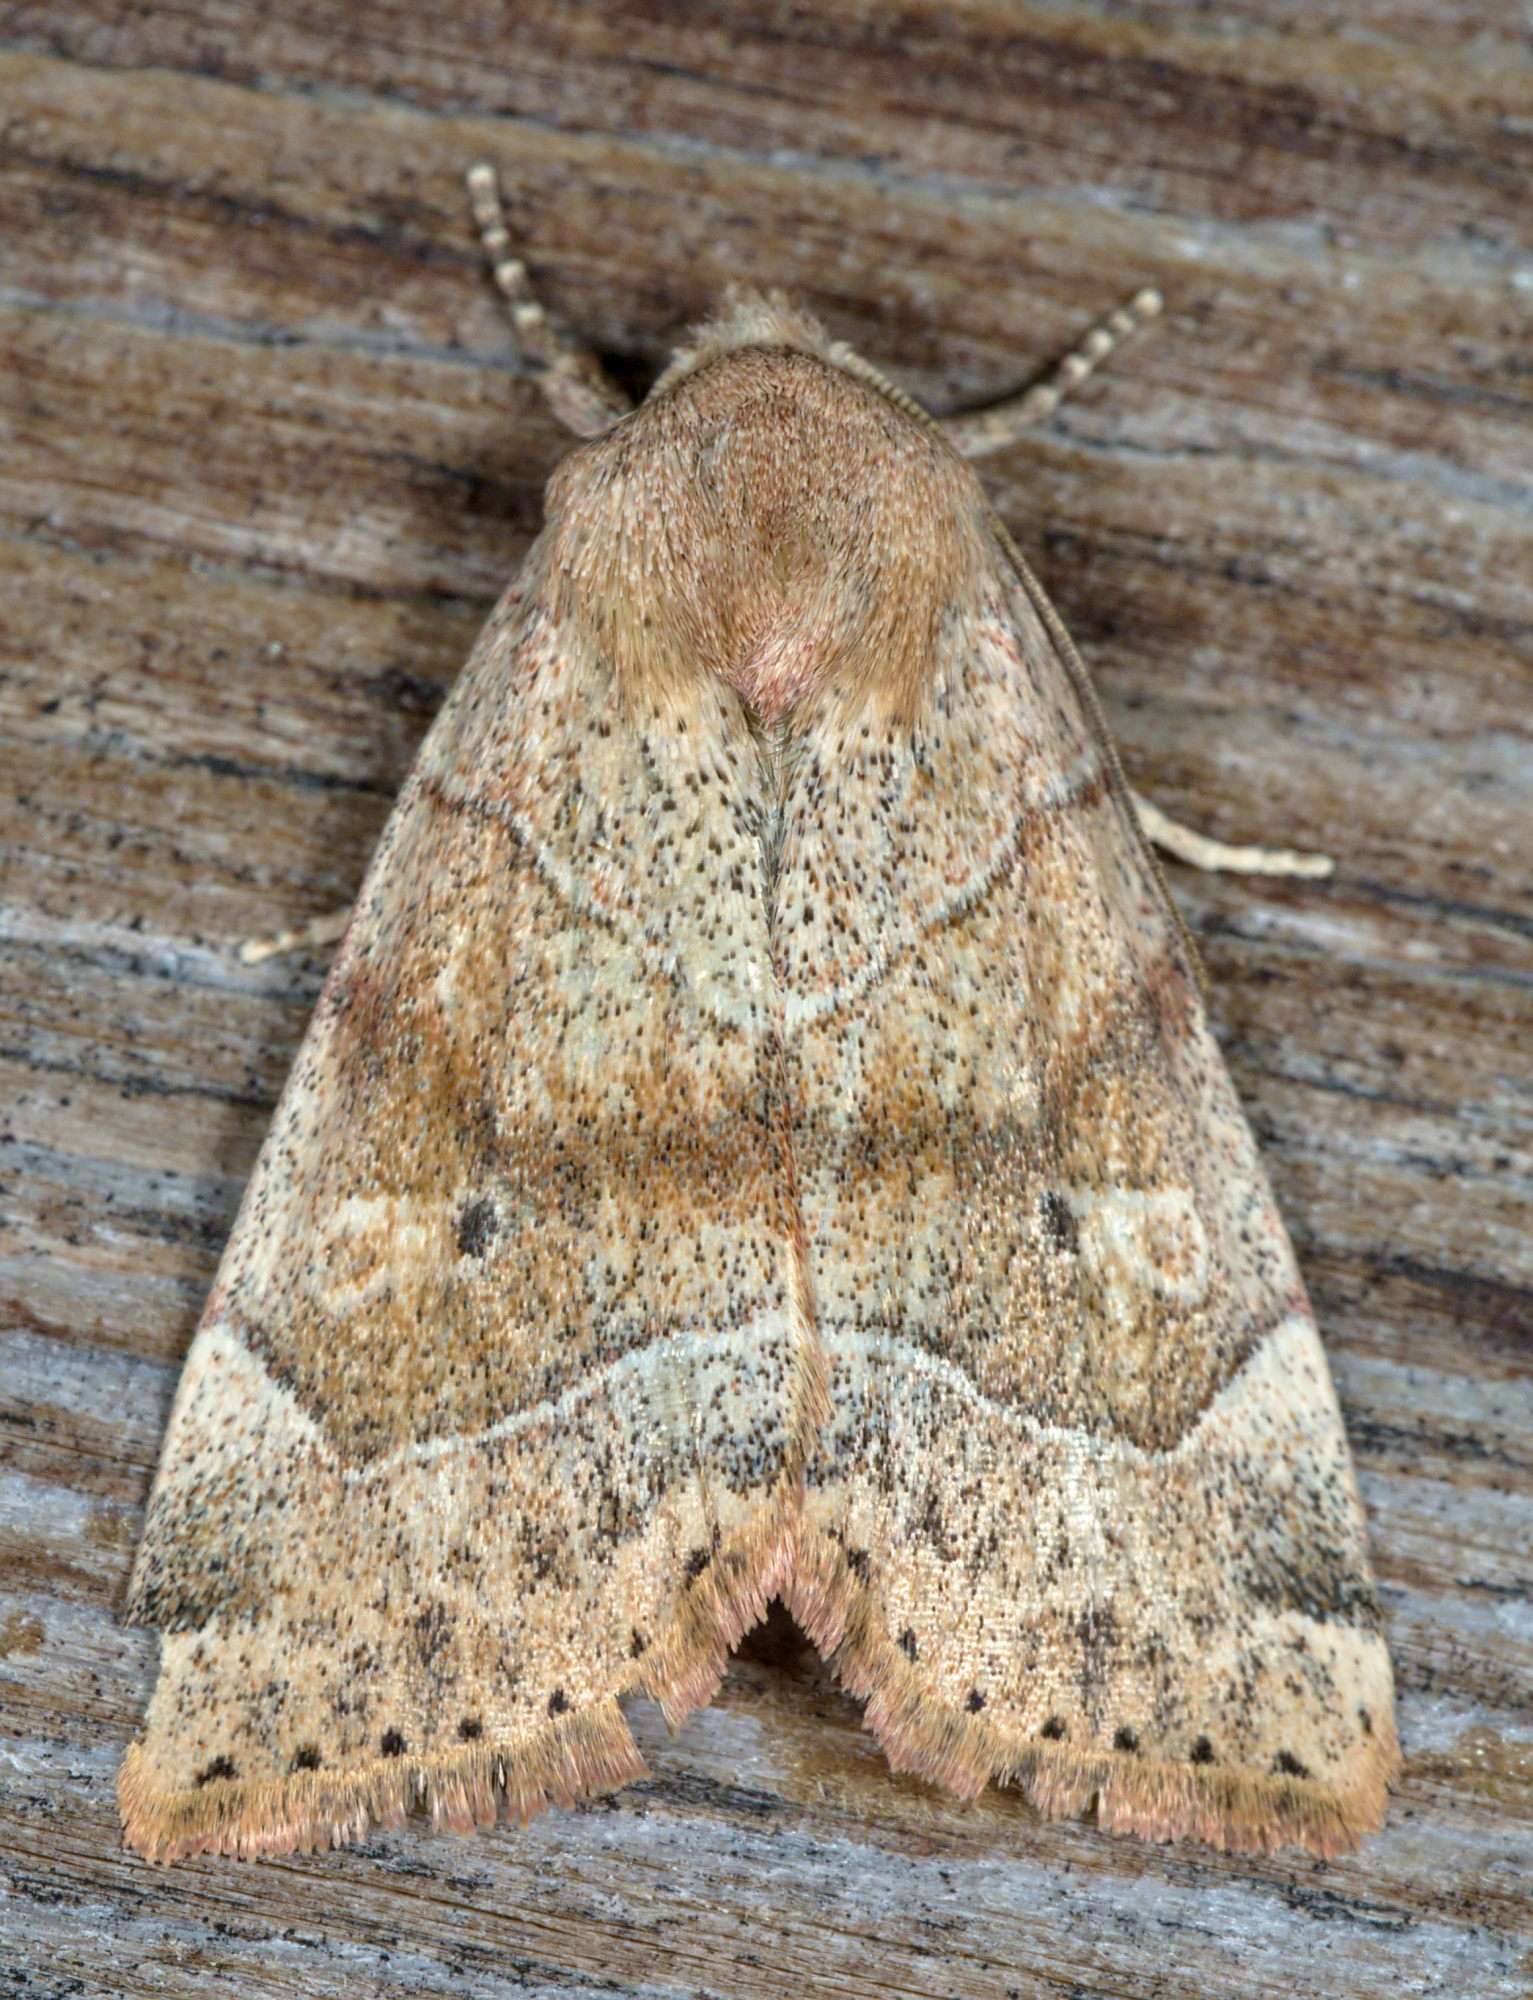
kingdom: Animalia
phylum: Arthropoda
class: Insecta
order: Lepidoptera
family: Noctuidae
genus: Cosmia
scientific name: Cosmia trapezina
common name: Dun-bar
